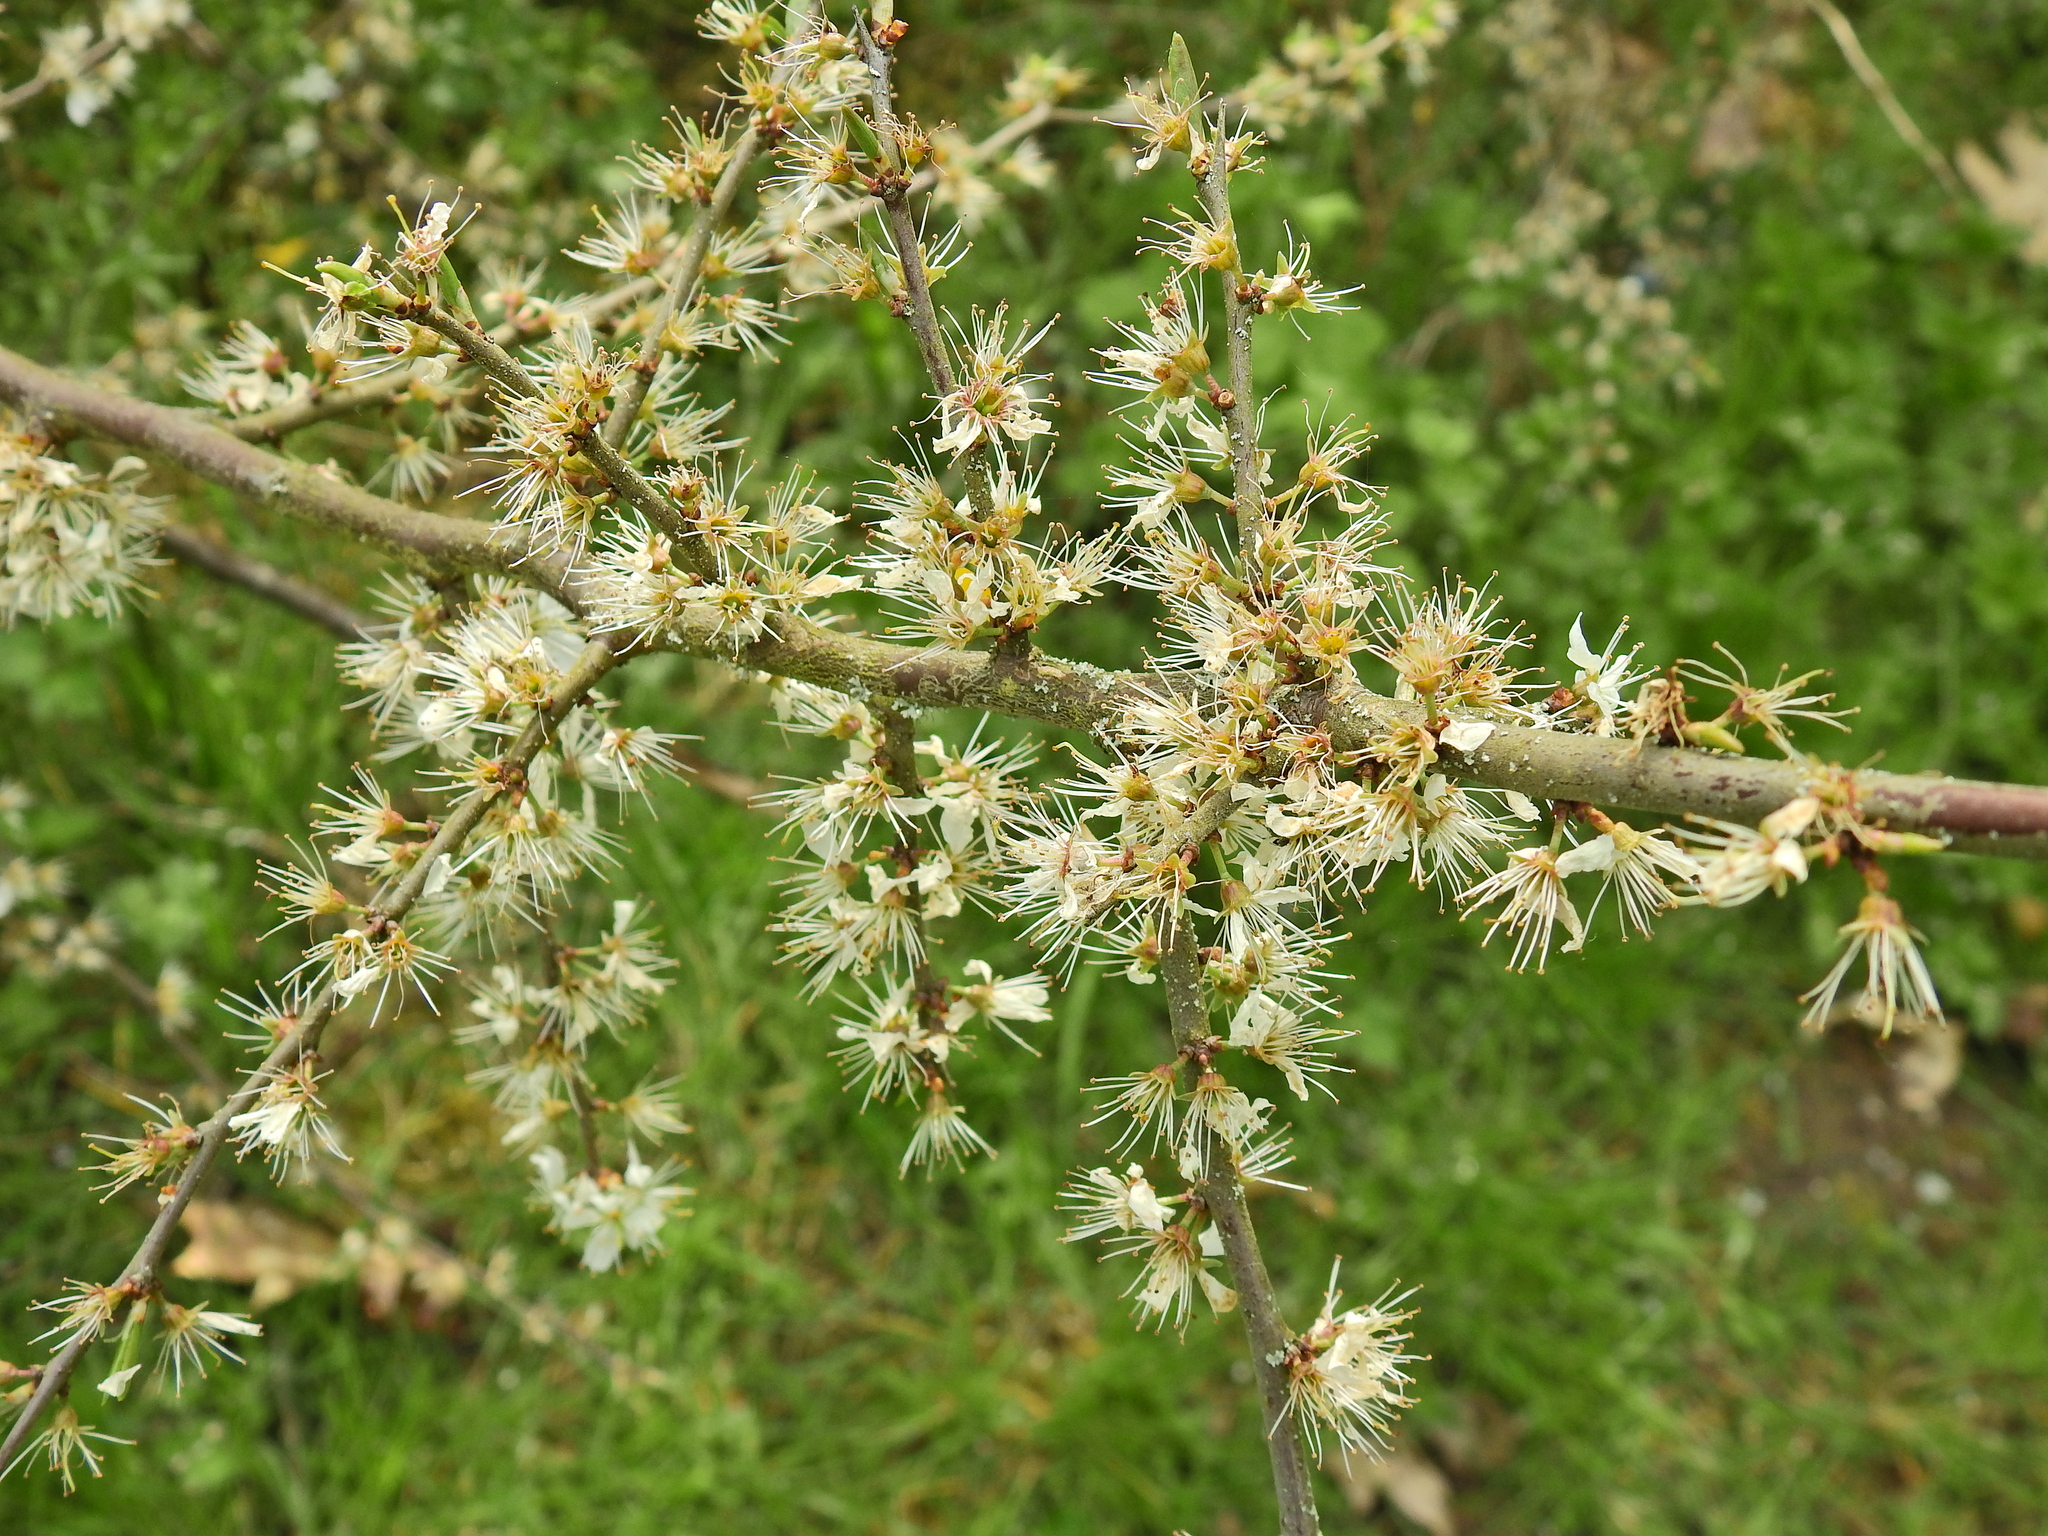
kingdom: Plantae
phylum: Tracheophyta
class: Magnoliopsida
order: Rosales
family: Rosaceae
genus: Prunus
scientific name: Prunus spinosa
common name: Blackthorn
